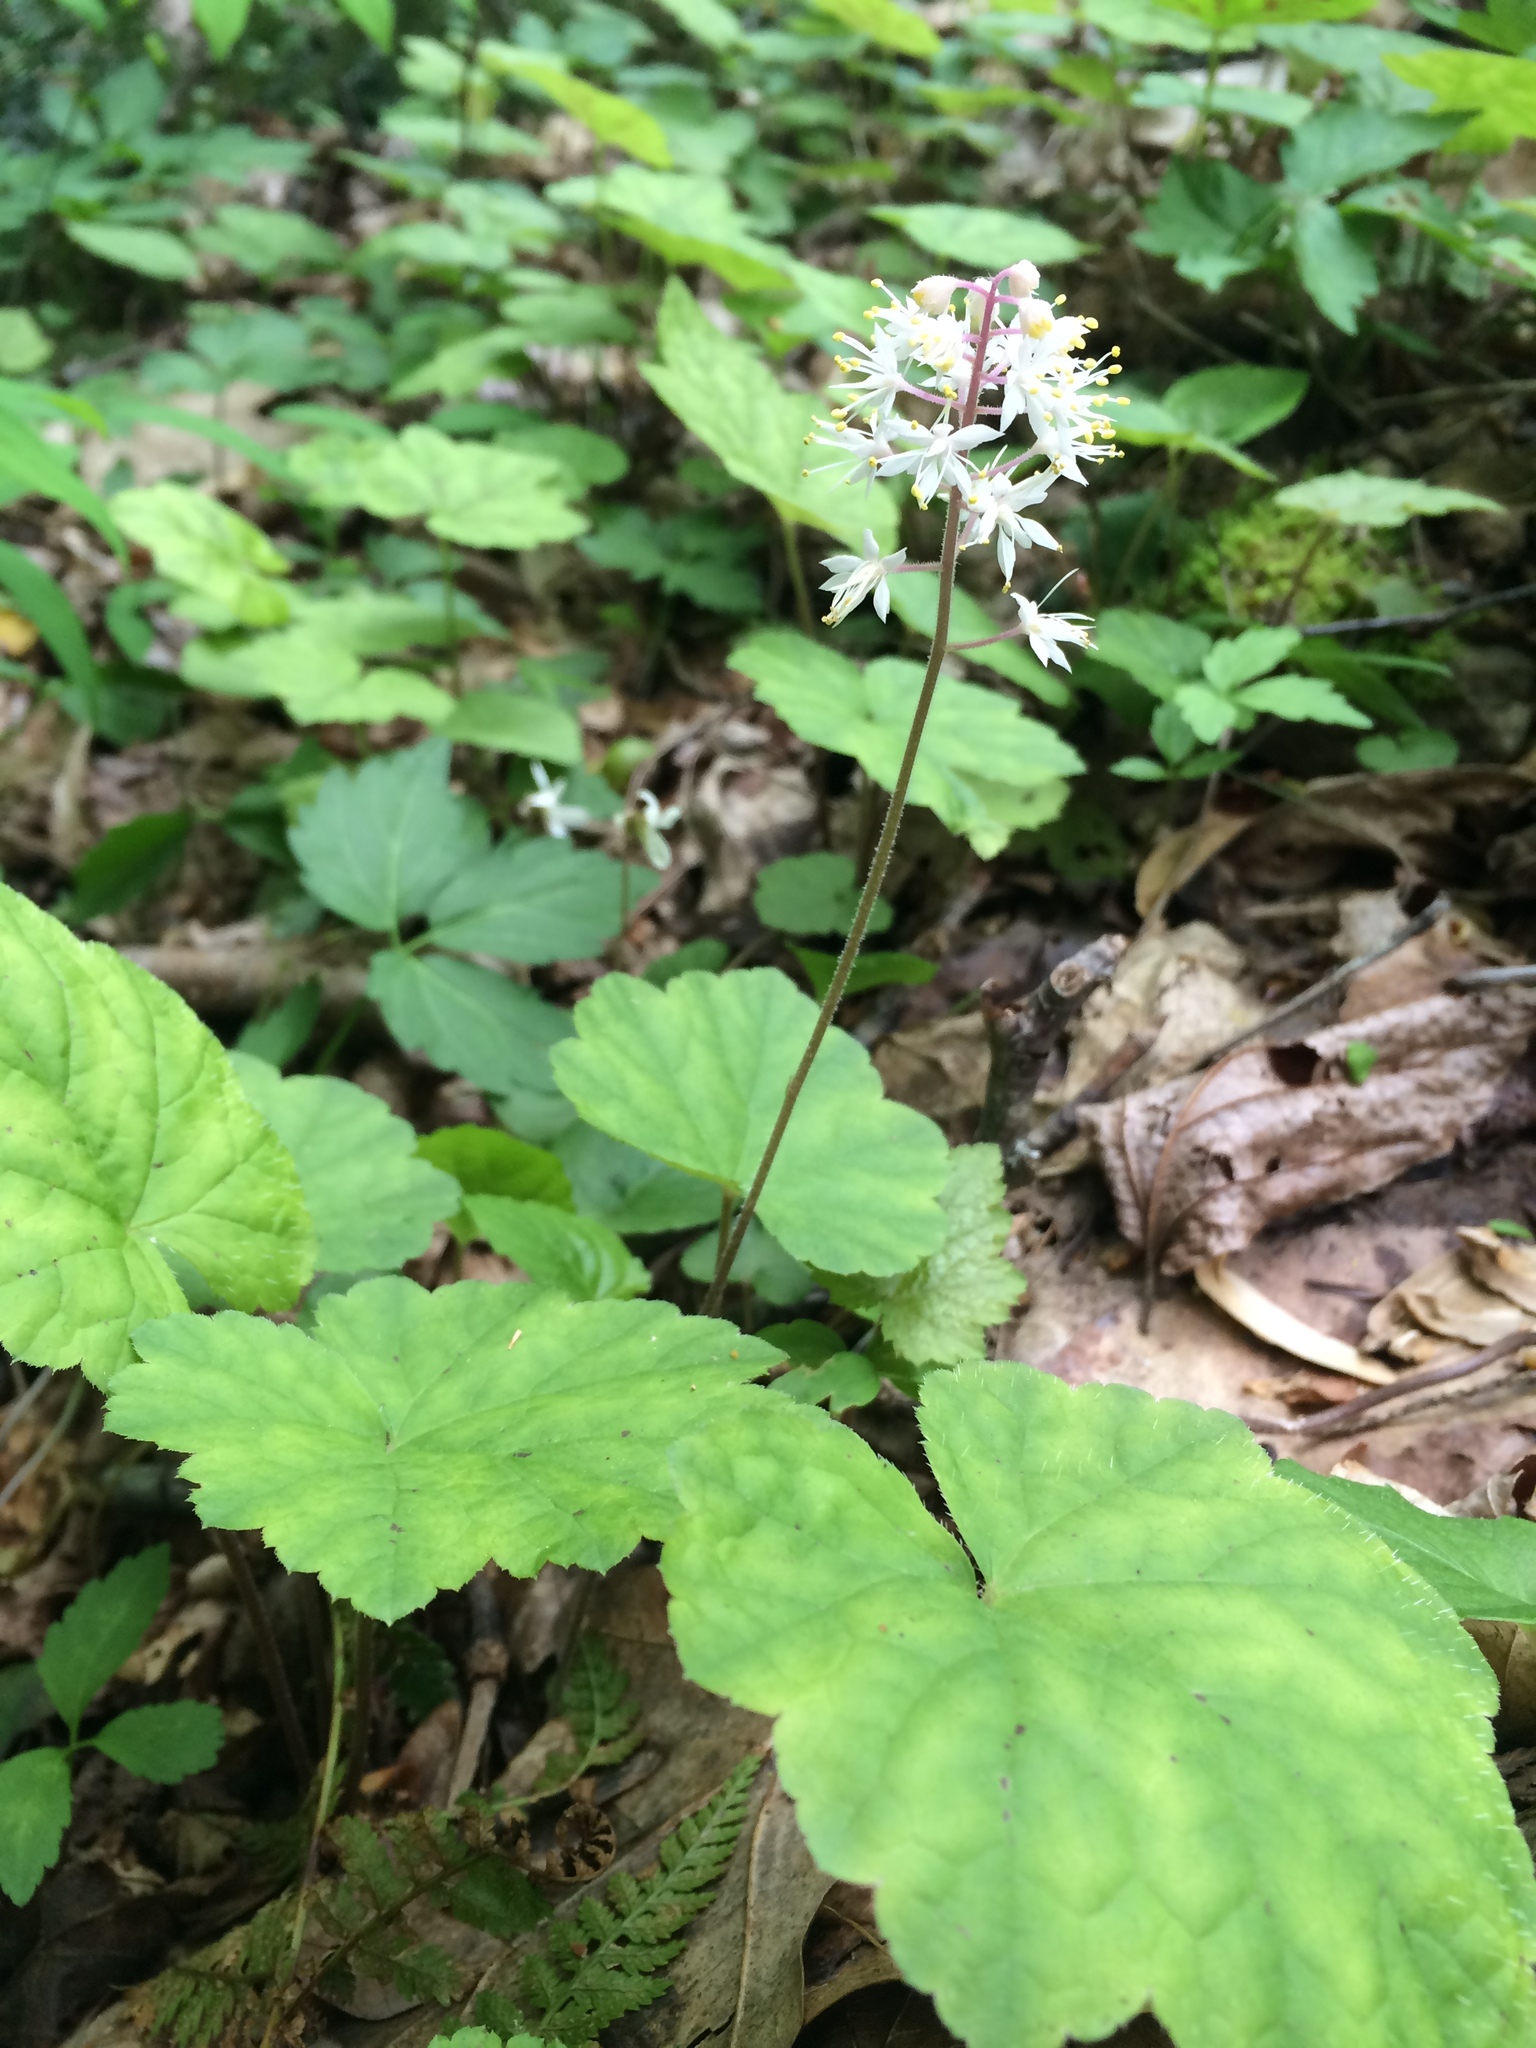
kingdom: Plantae
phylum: Tracheophyta
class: Magnoliopsida
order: Saxifragales
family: Saxifragaceae
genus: Tiarella
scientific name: Tiarella stolonifera
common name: Stoloniferous foamflower
